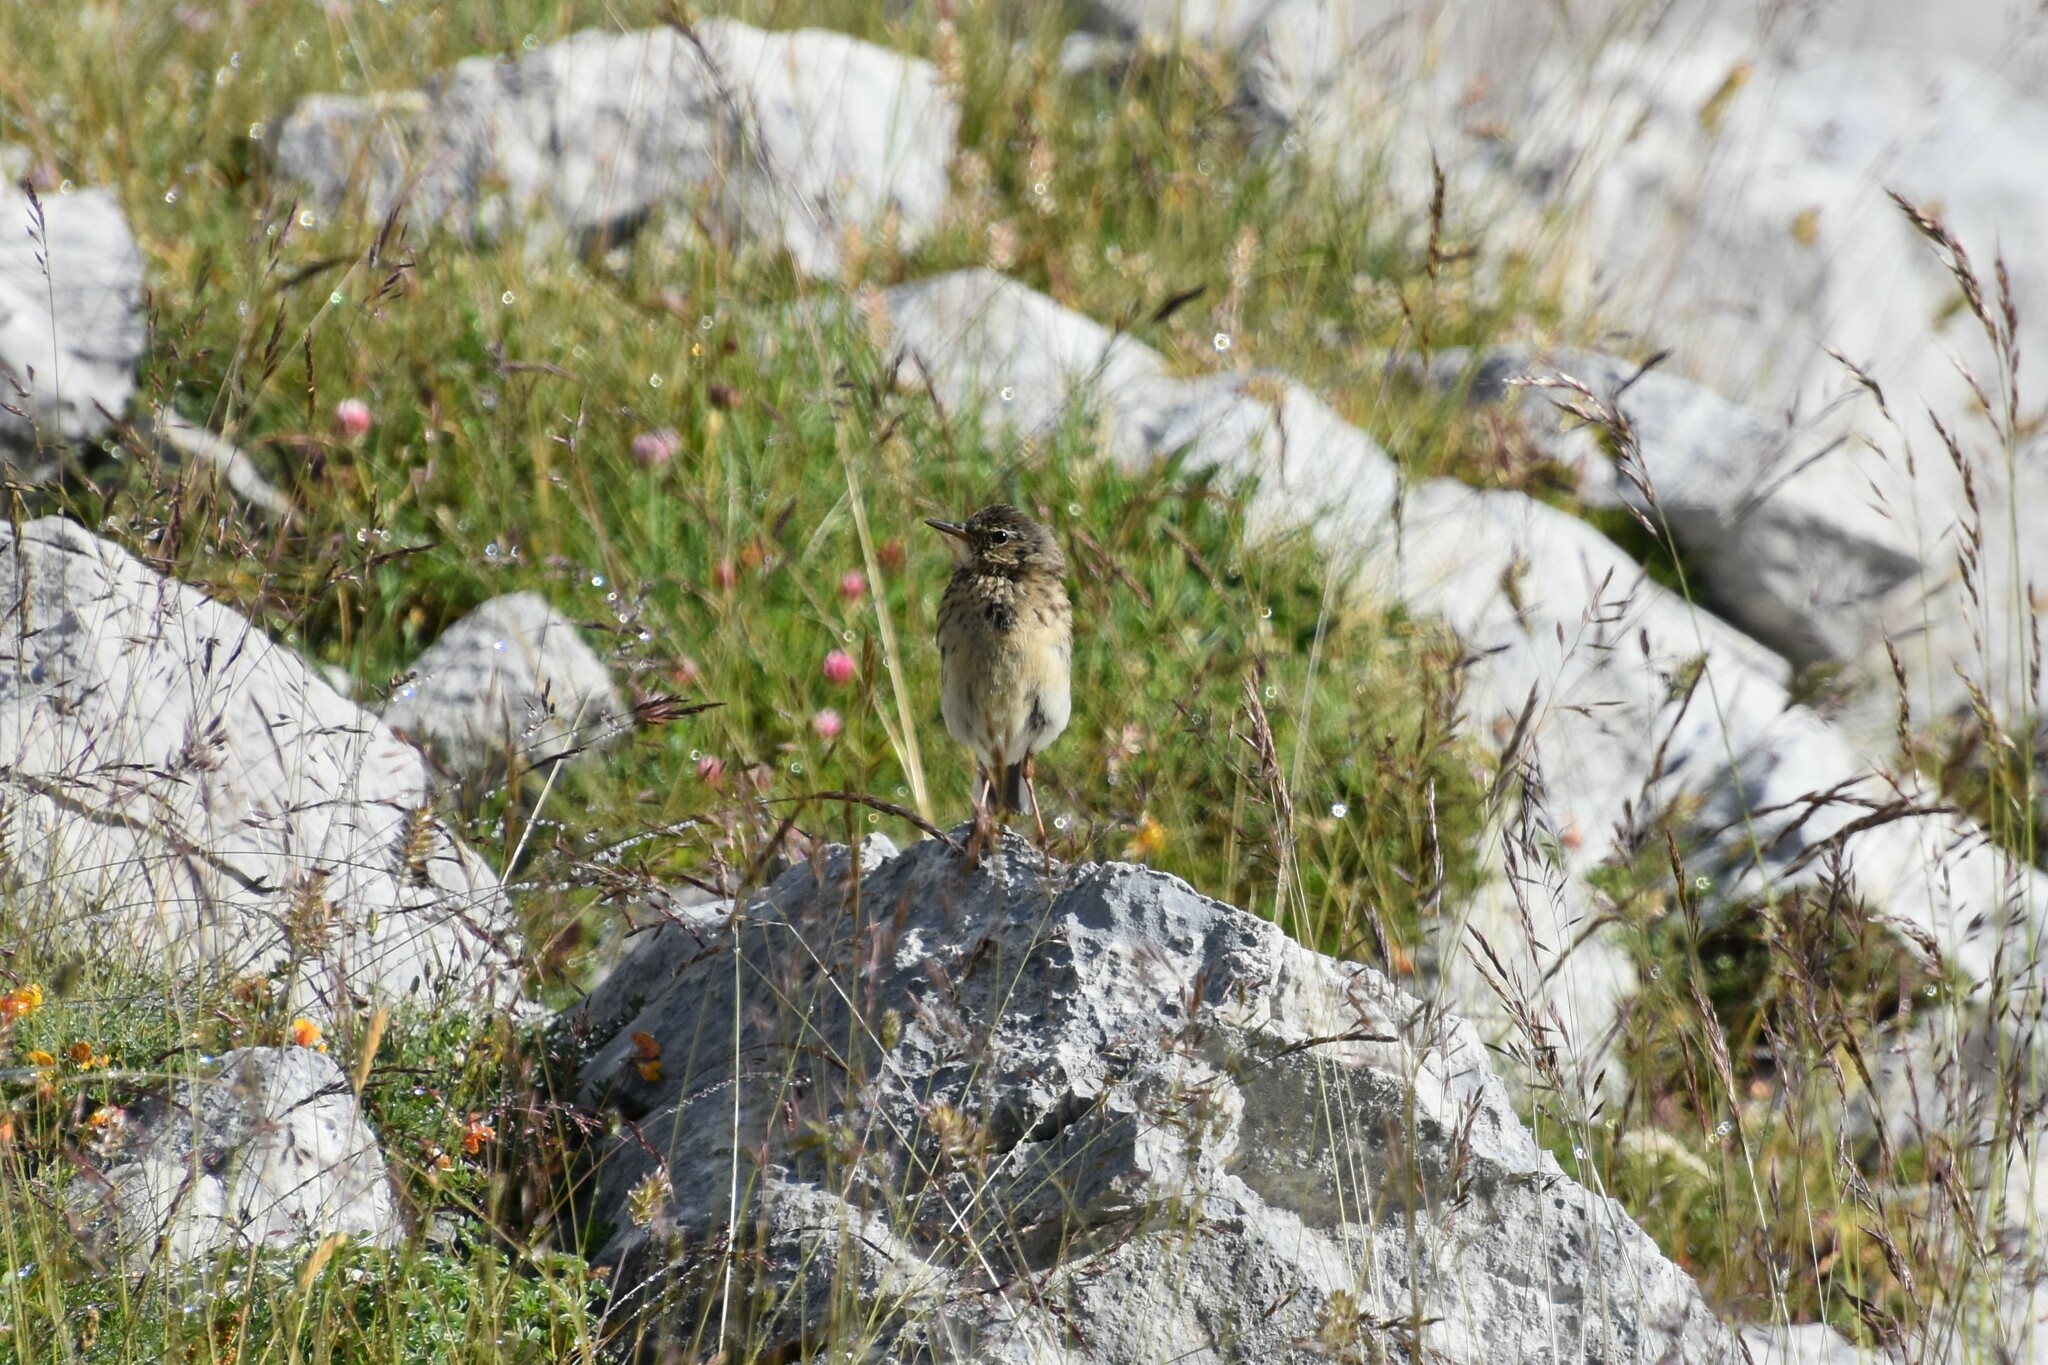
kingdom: Animalia
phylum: Chordata
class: Aves
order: Passeriformes
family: Motacillidae
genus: Anthus
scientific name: Anthus spinoletta
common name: Water pipit
